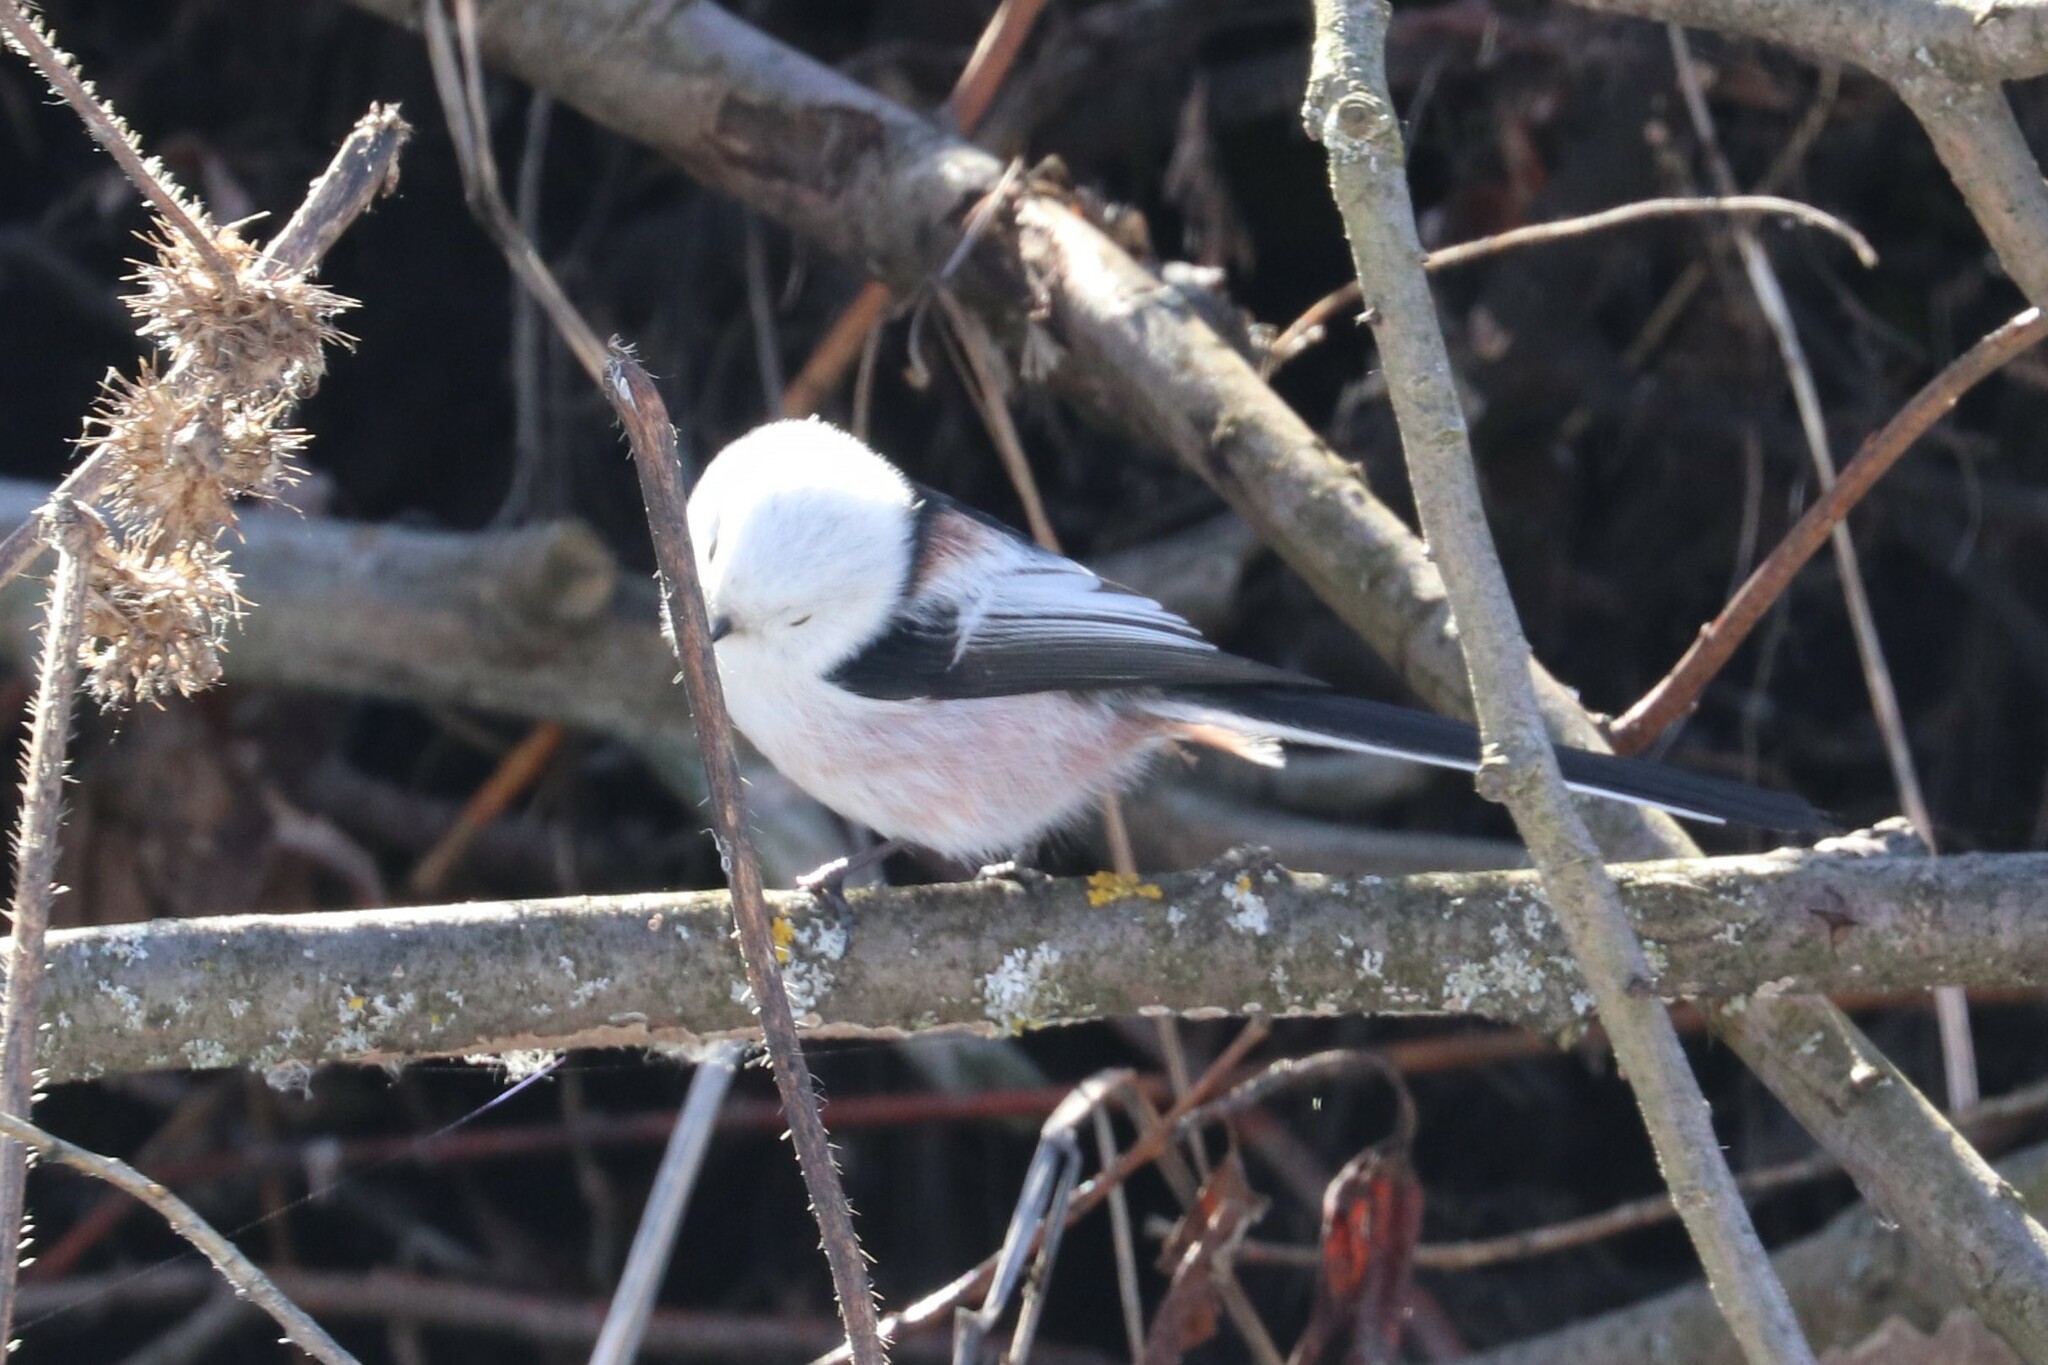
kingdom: Animalia
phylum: Chordata
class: Aves
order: Passeriformes
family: Aegithalidae
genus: Aegithalos
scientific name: Aegithalos caudatus
